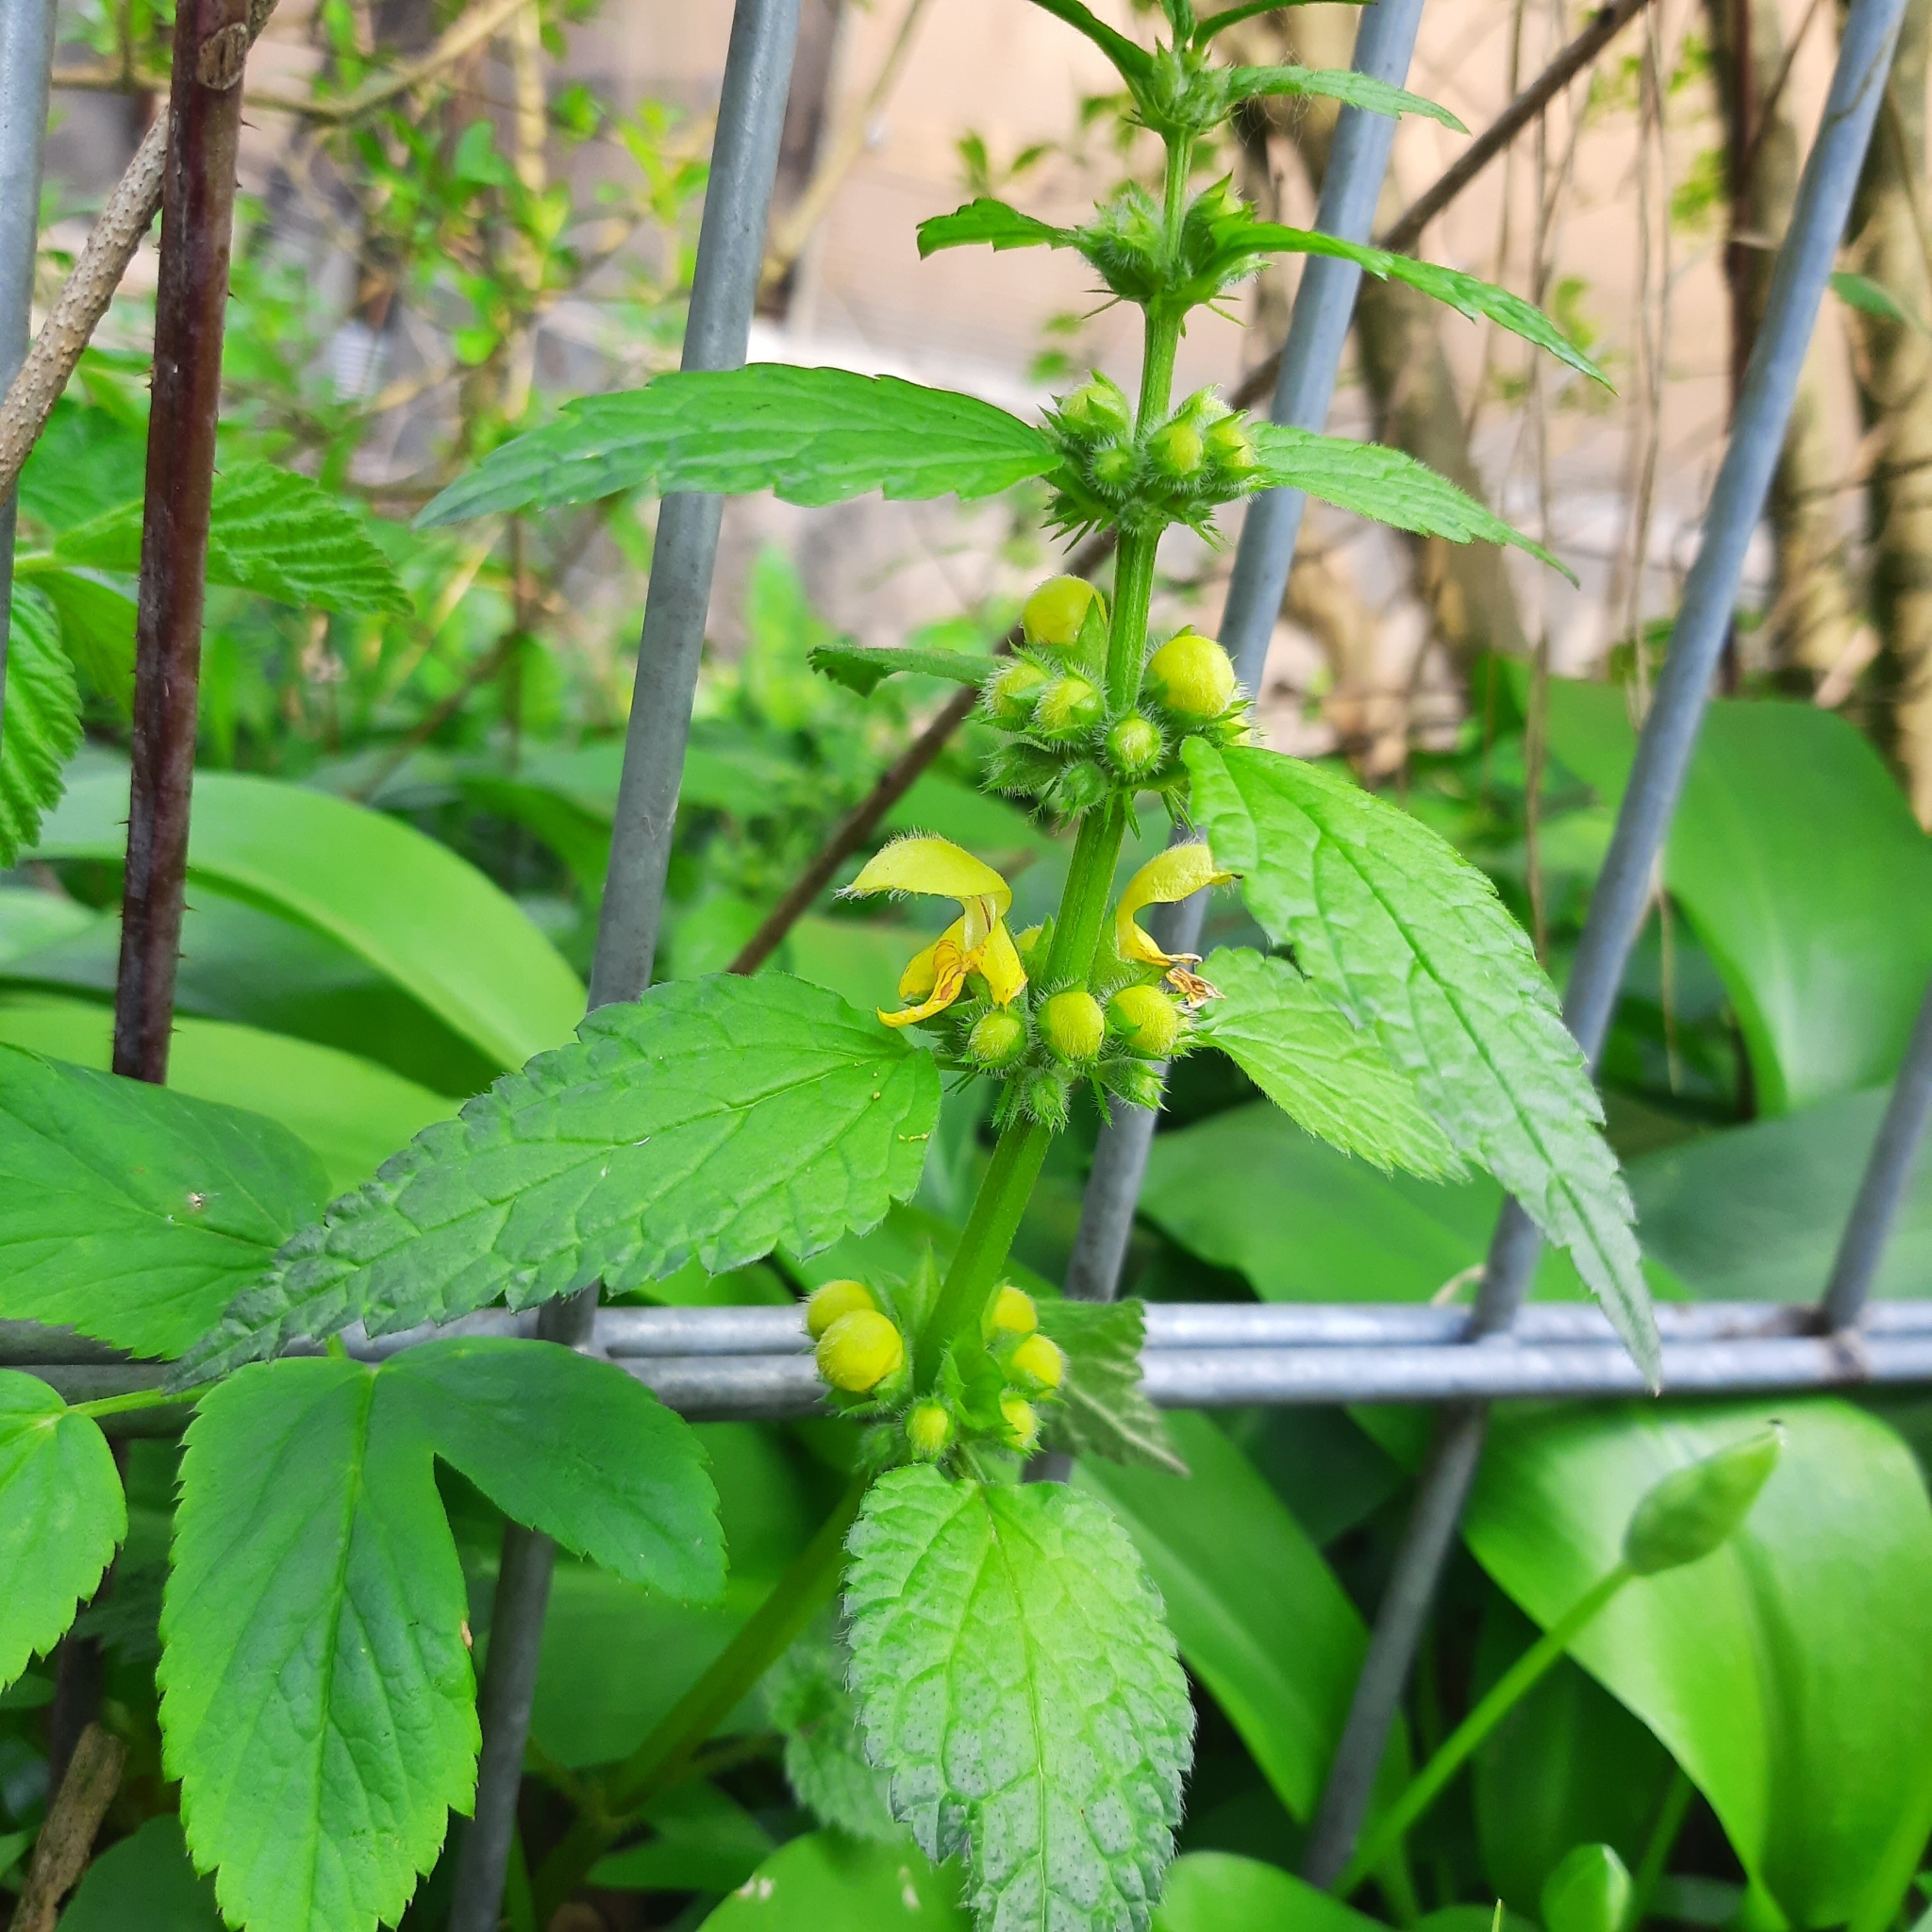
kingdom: Plantae
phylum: Tracheophyta
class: Magnoliopsida
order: Lamiales
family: Lamiaceae
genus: Lamium
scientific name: Lamium galeobdolon
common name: Yellow archangel
